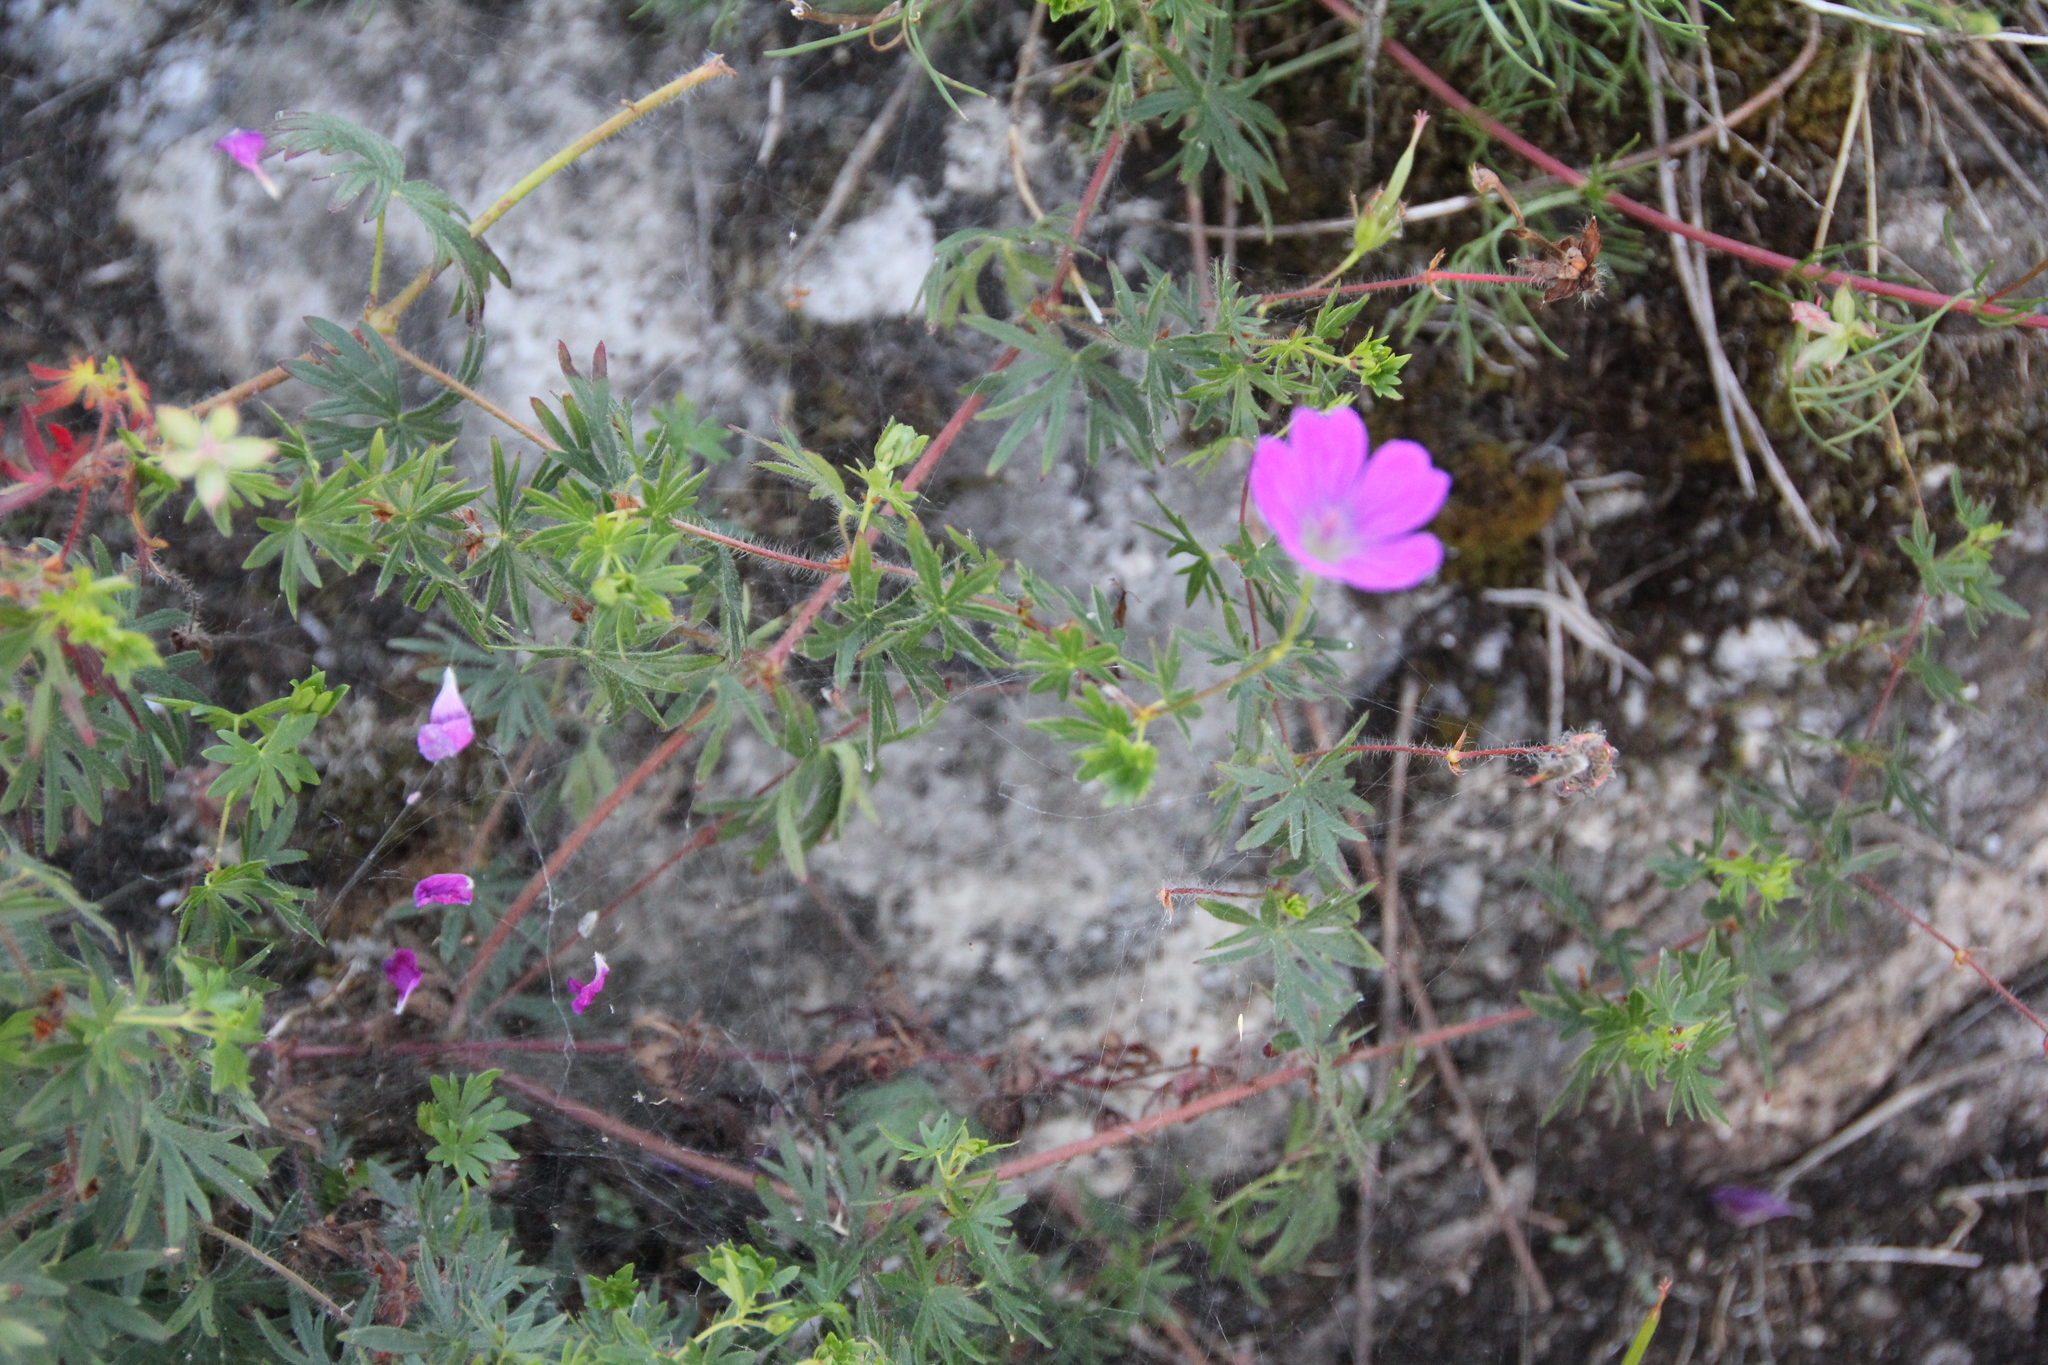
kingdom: Plantae
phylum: Tracheophyta
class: Magnoliopsida
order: Geraniales
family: Geraniaceae
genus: Geranium
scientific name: Geranium sanguineum
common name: Bloody crane's-bill
